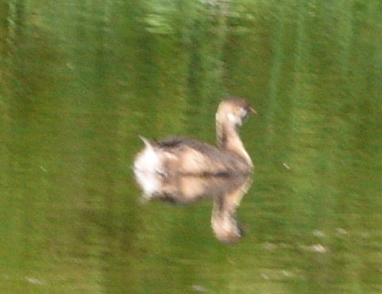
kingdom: Animalia
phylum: Chordata
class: Aves
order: Podicipediformes
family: Podicipedidae
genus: Podilymbus
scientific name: Podilymbus podiceps
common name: Pied-billed grebe
